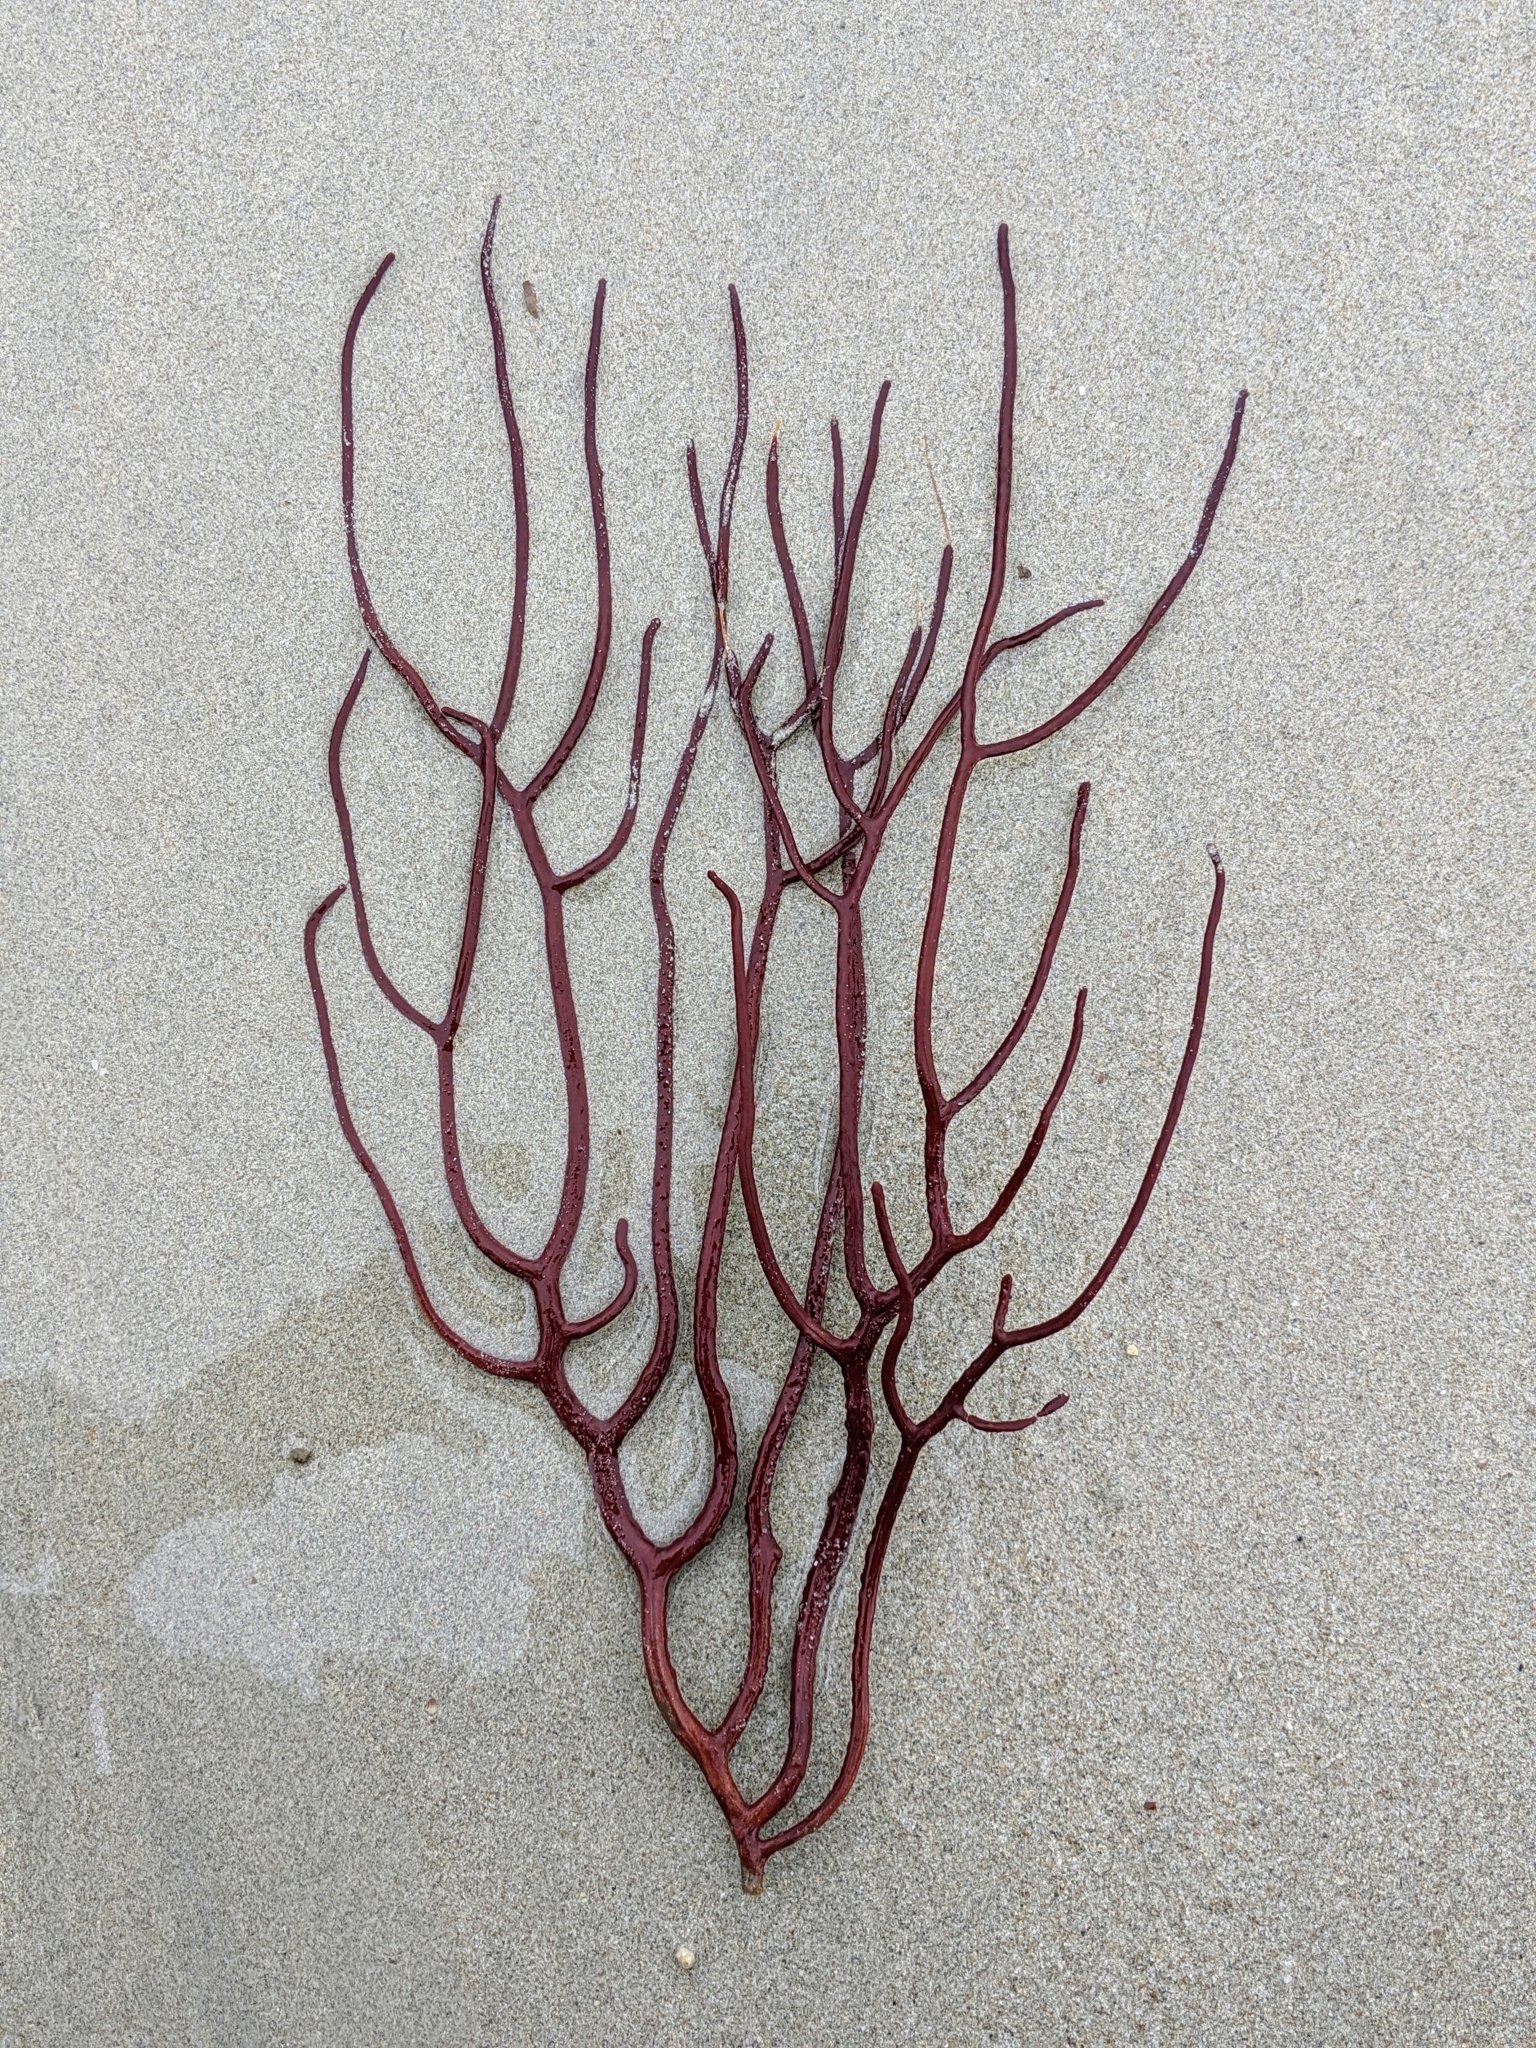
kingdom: Animalia
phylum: Cnidaria
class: Anthozoa
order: Malacalcyonacea
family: Subergorgiidae
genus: Subergorgia
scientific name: Subergorgia suberosa
